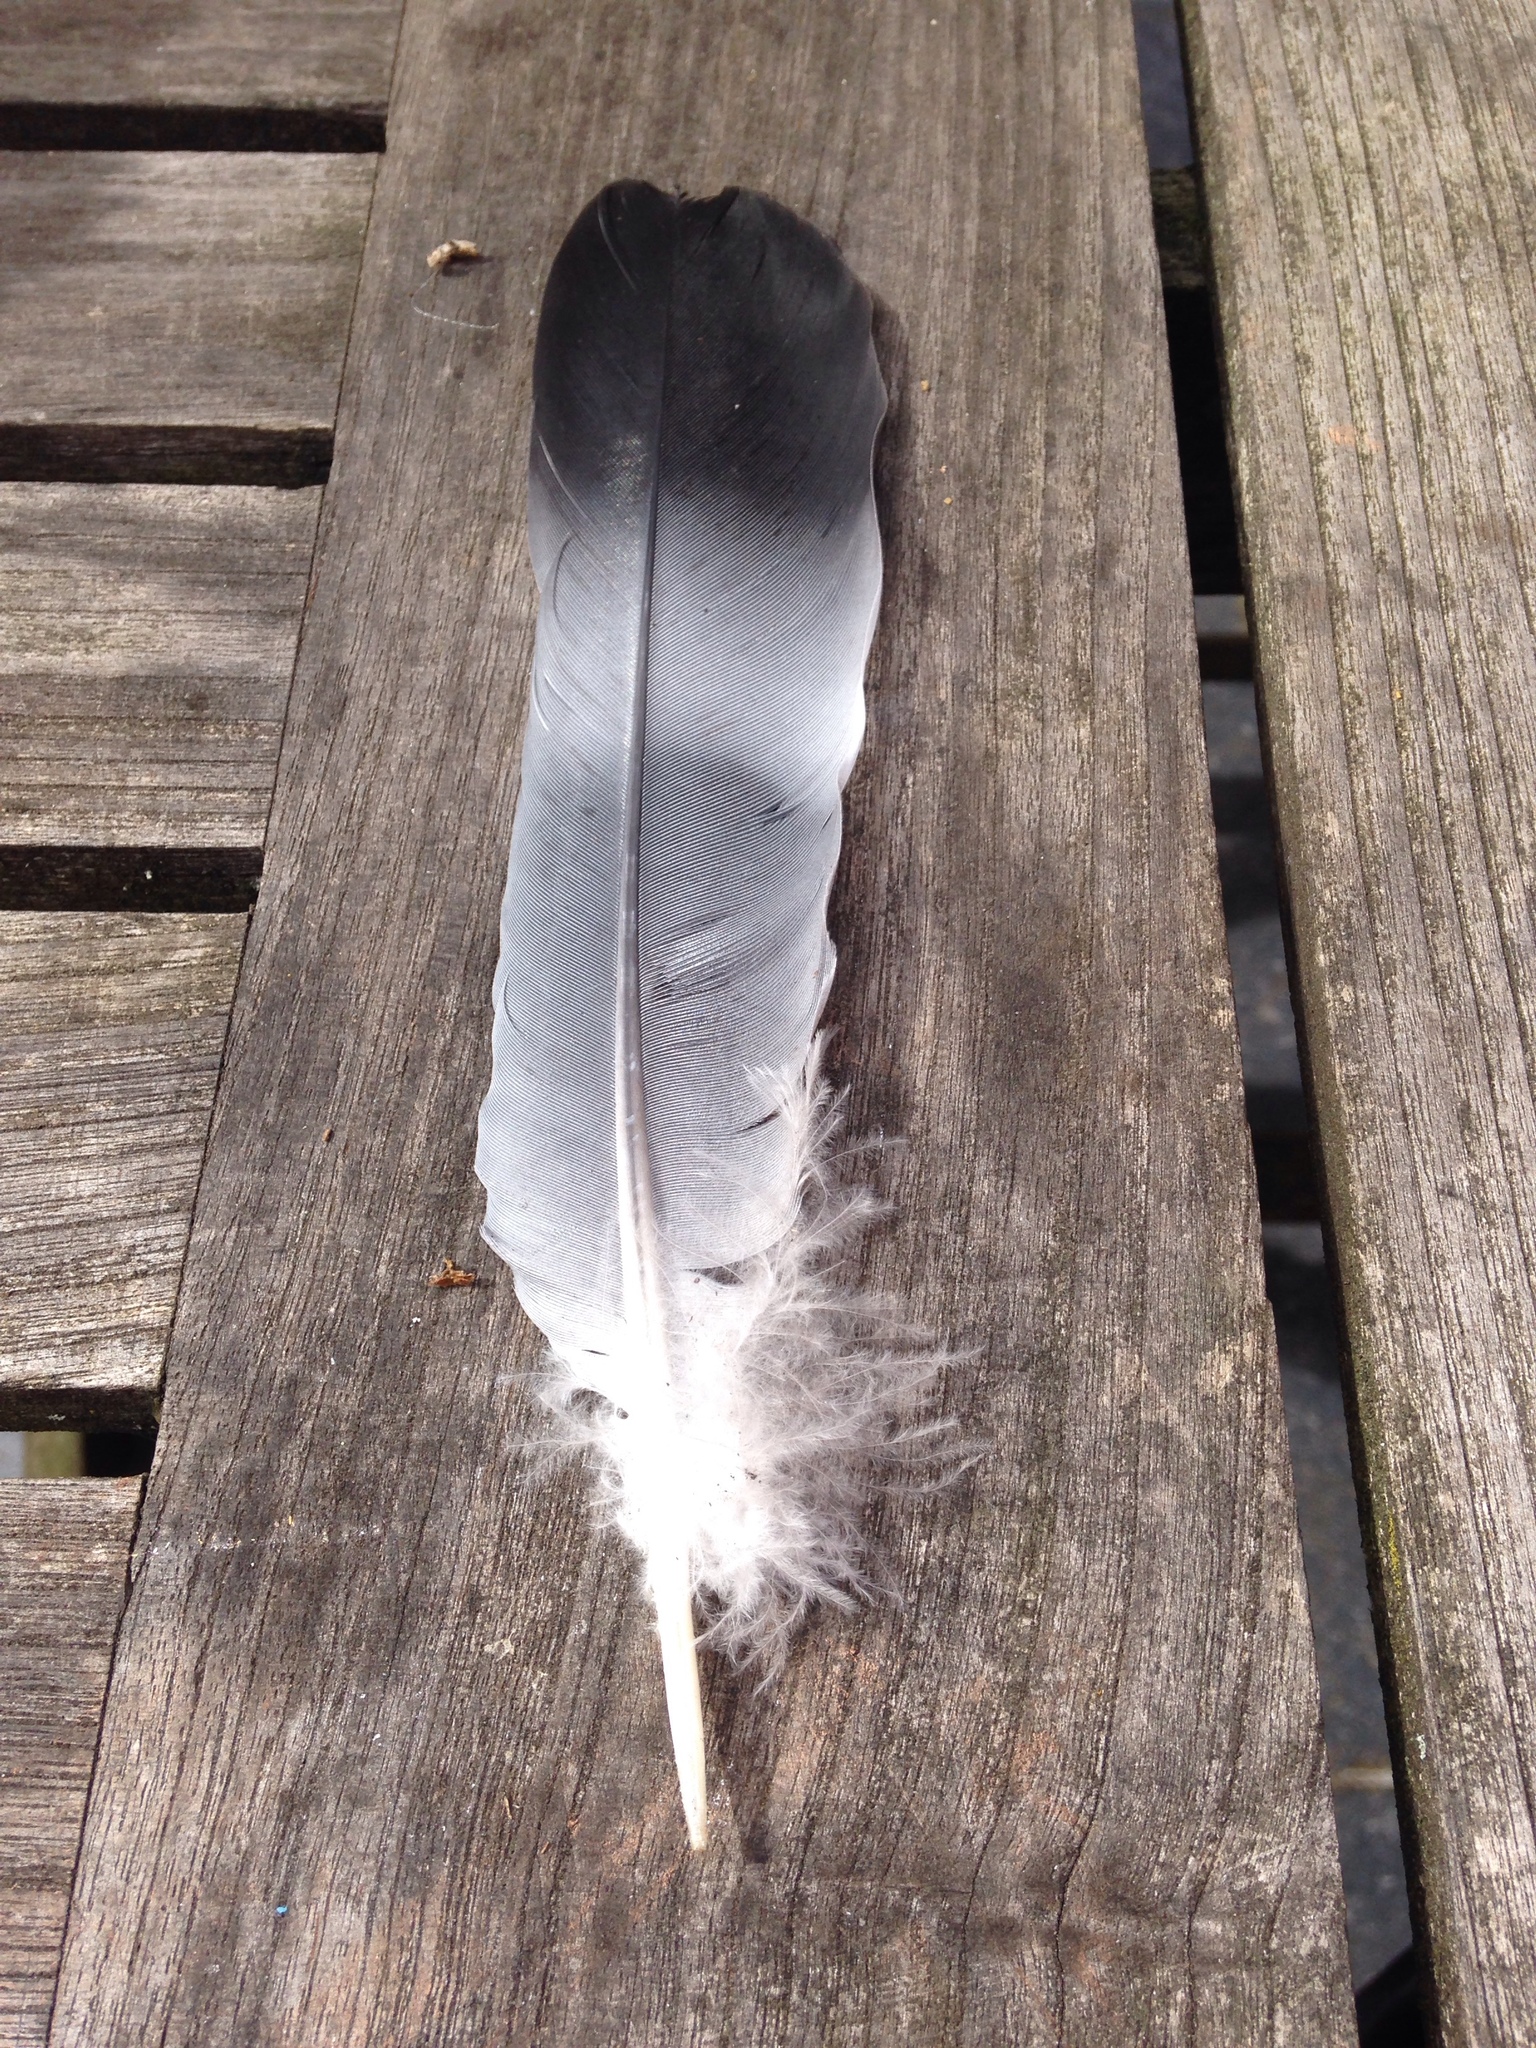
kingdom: Animalia
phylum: Chordata
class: Aves
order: Columbiformes
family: Columbidae
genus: Columba
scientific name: Columba palumbus
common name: Common wood pigeon
